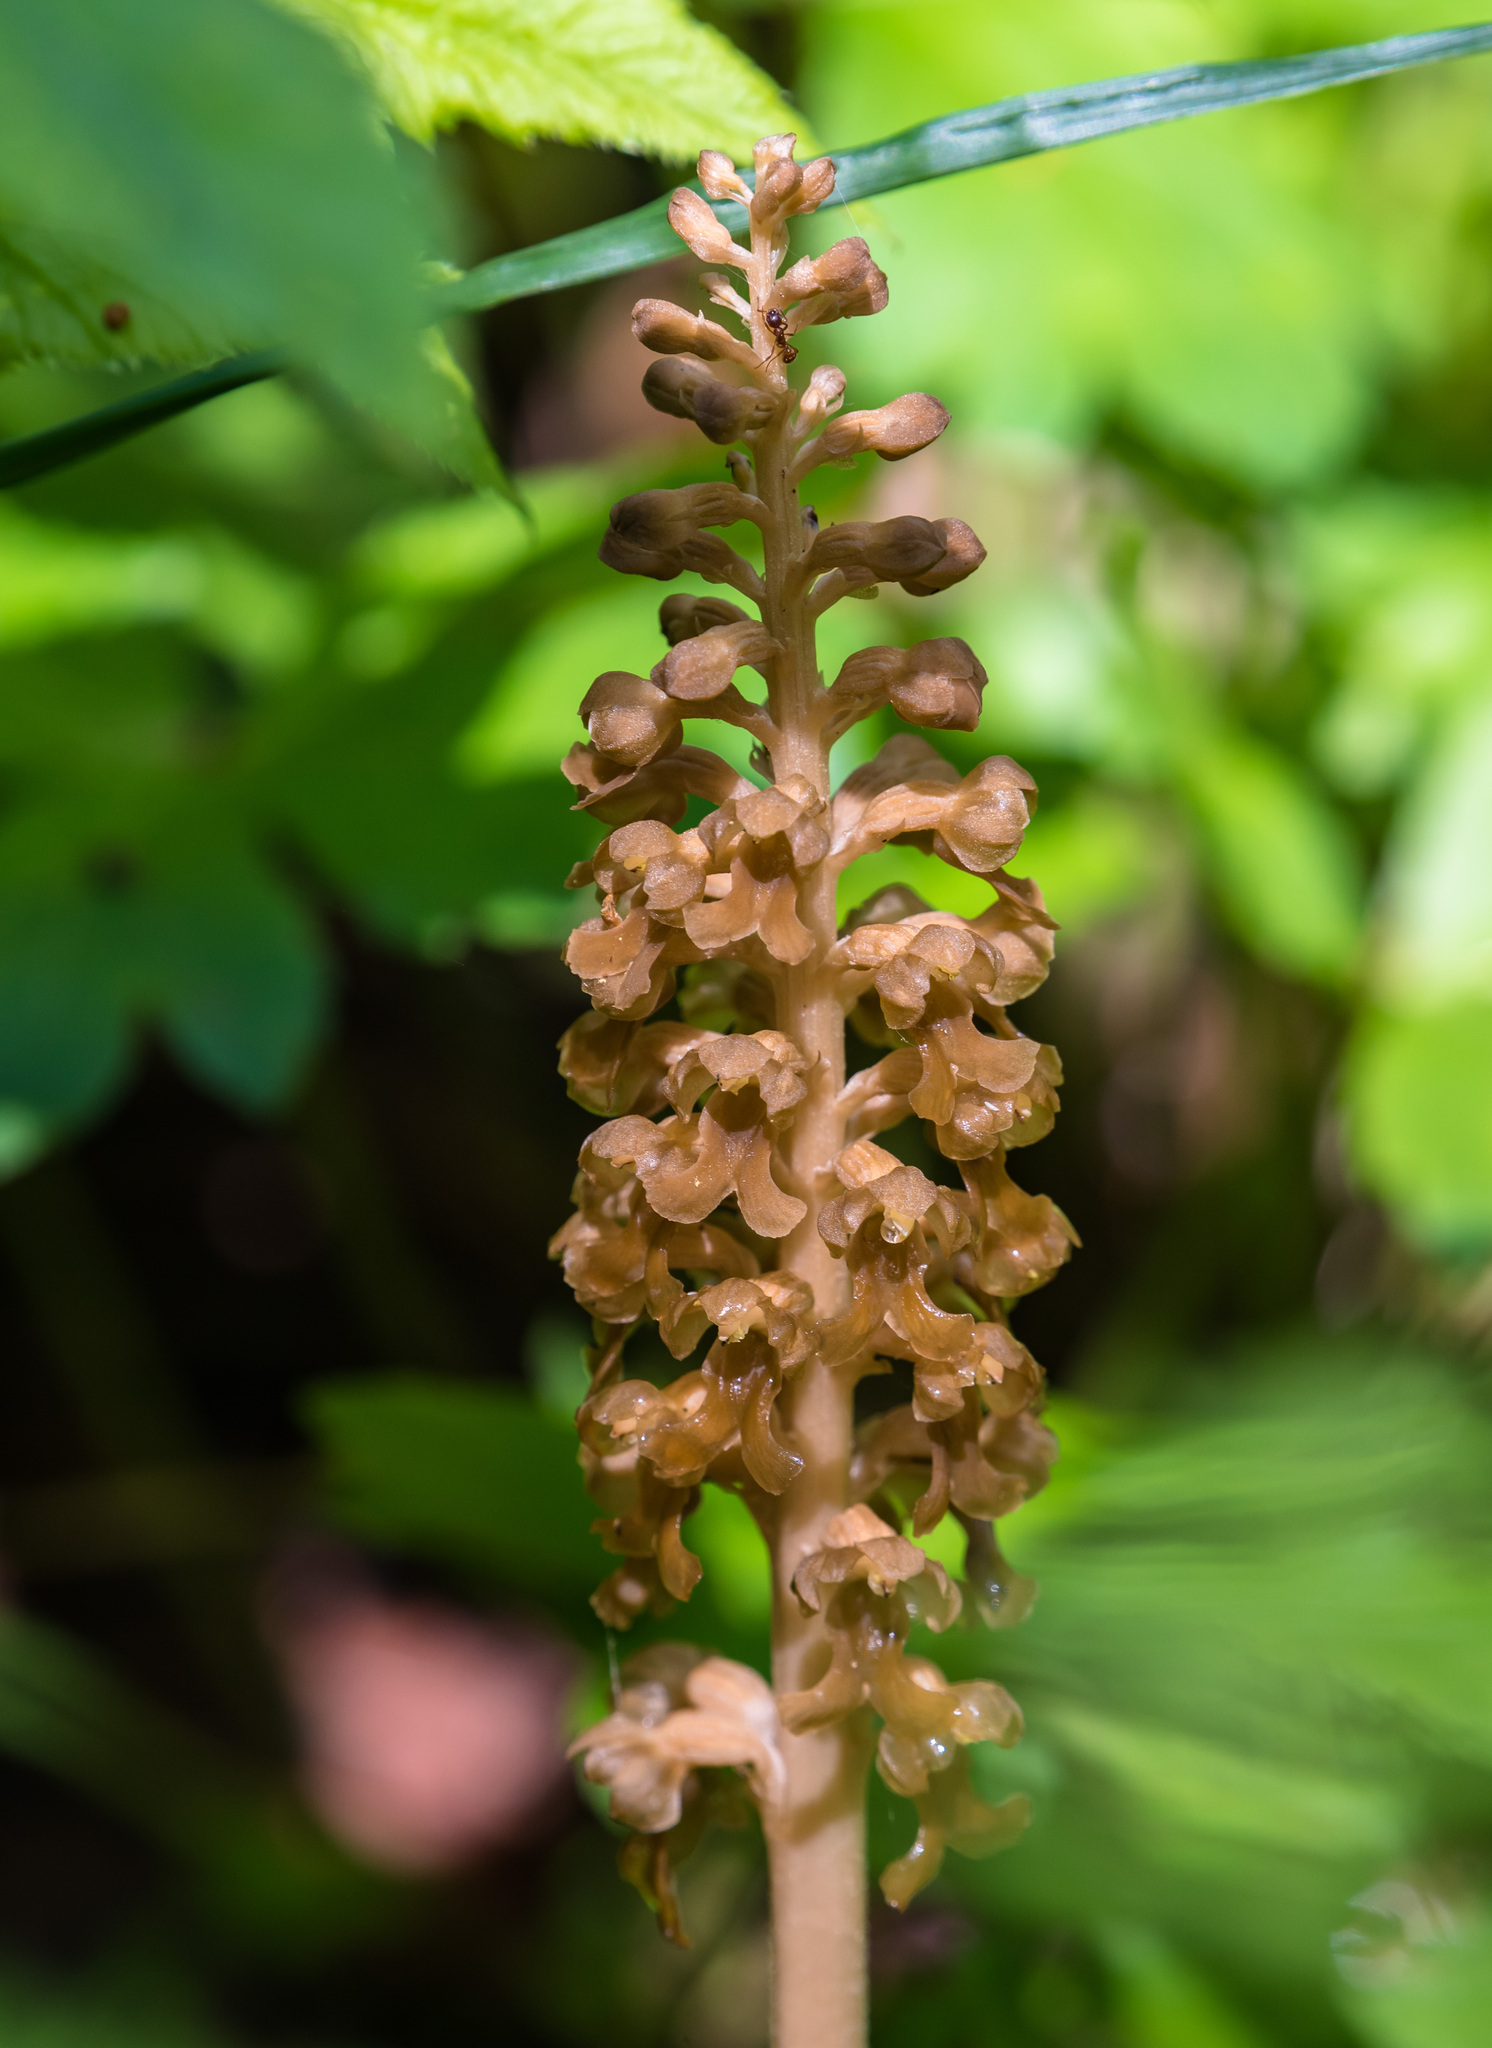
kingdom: Plantae
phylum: Tracheophyta
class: Liliopsida
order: Asparagales
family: Orchidaceae
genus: Neottia
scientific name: Neottia nidus-avis
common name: Bird's-nest orchid
